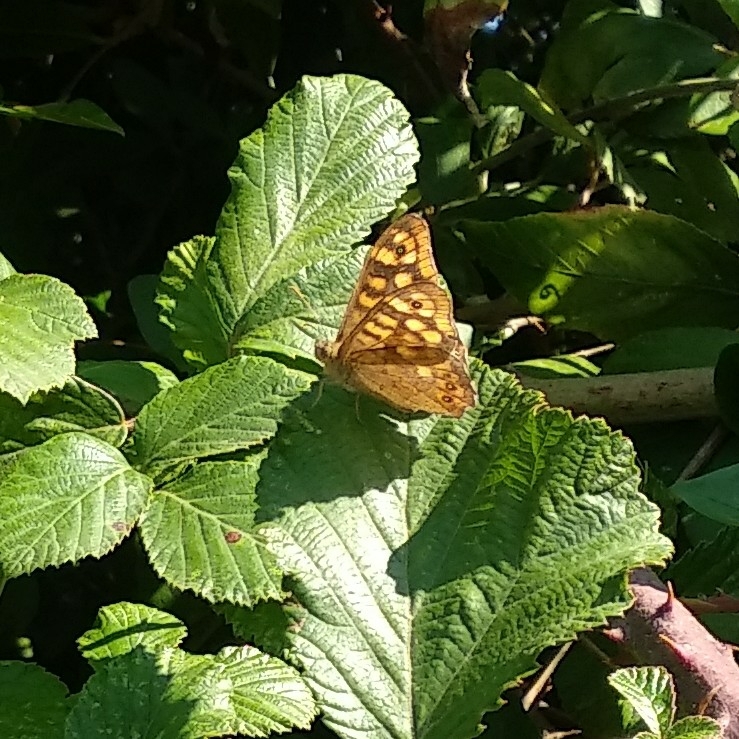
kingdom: Animalia
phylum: Arthropoda
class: Insecta
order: Lepidoptera
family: Nymphalidae
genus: Pararge
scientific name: Pararge aegeria
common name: Speckled wood
